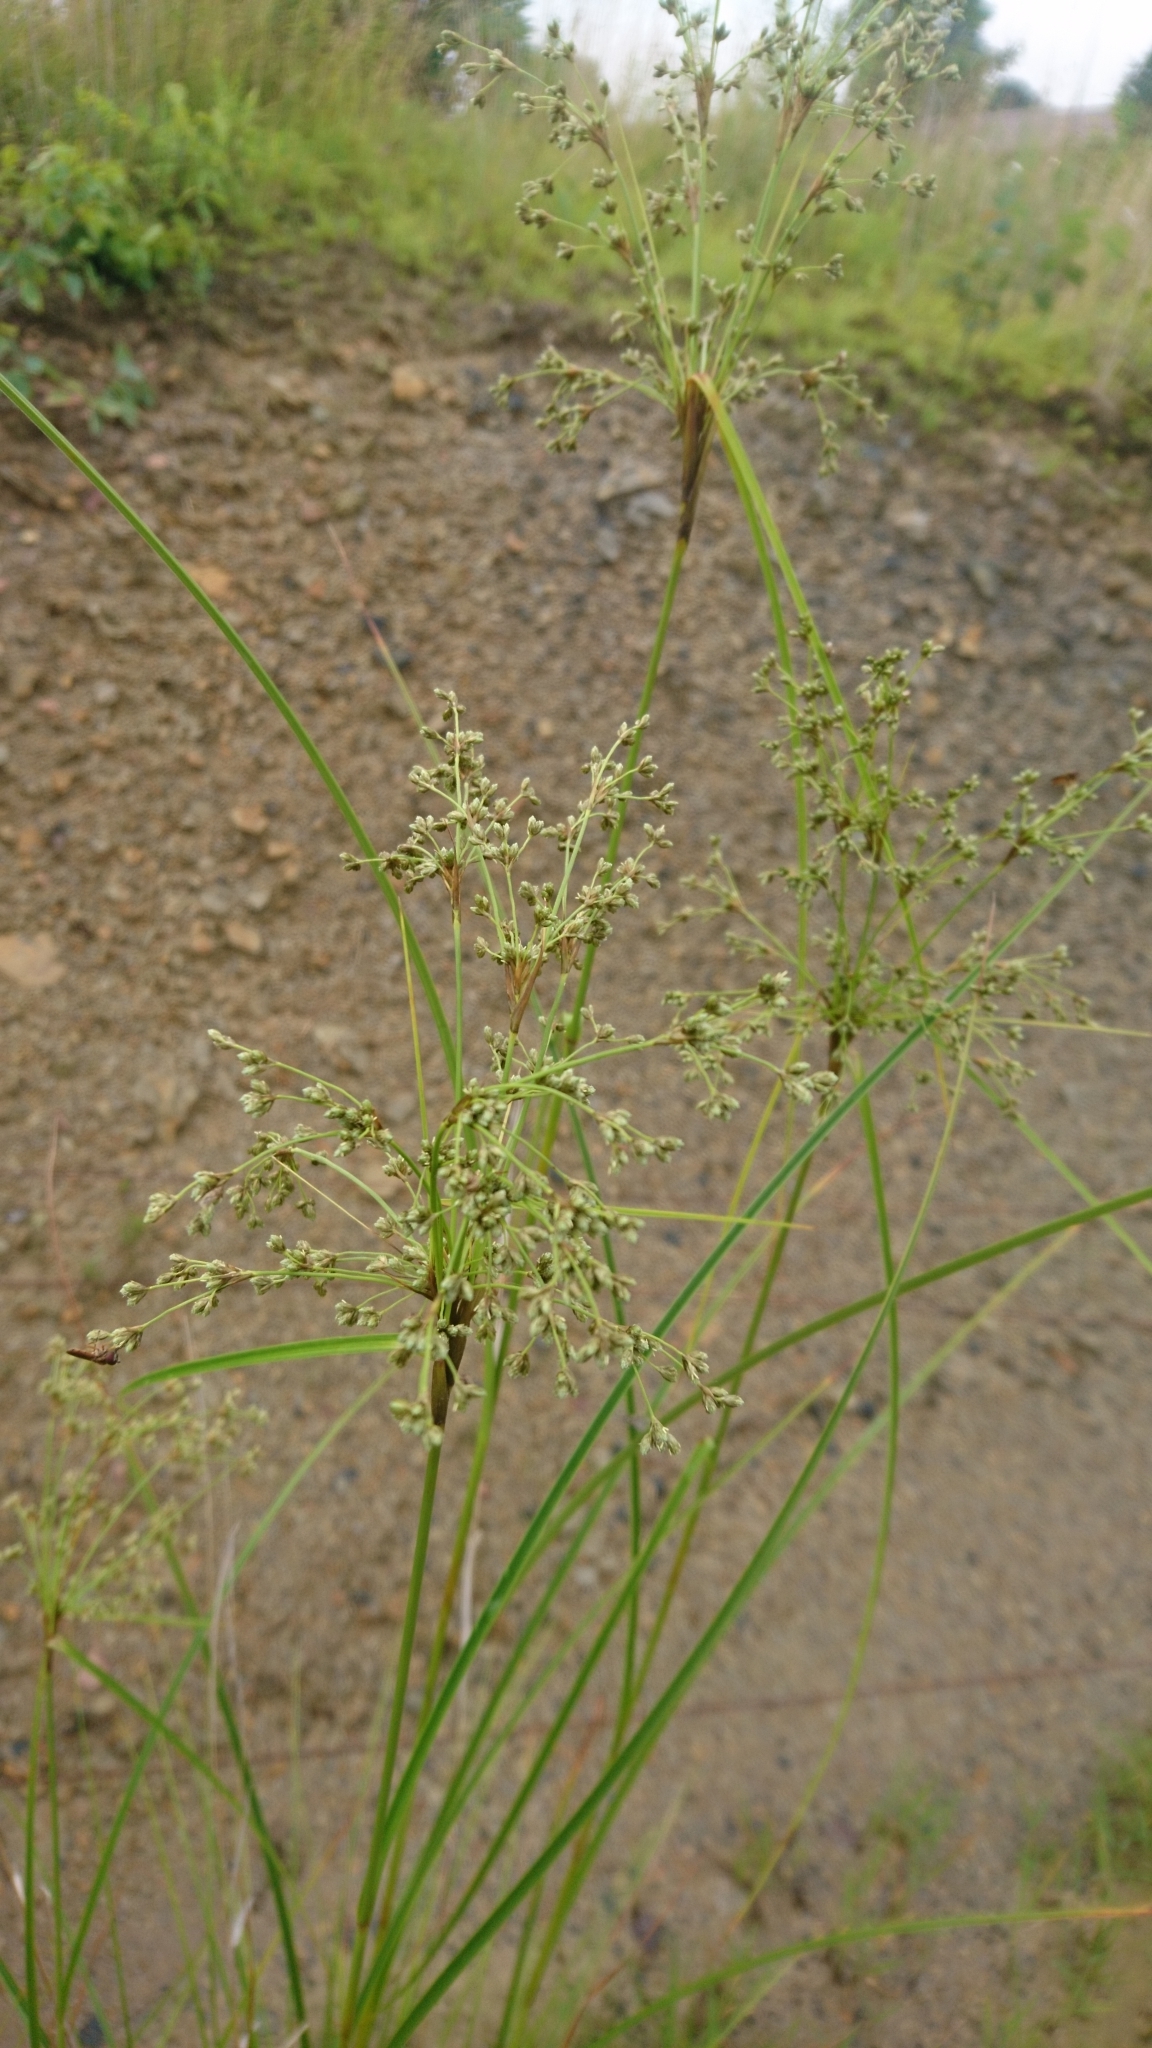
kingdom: Plantae
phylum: Tracheophyta
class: Liliopsida
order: Poales
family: Cyperaceae
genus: Scirpus
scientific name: Scirpus cyperinus
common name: Black-sheathed bulrush
